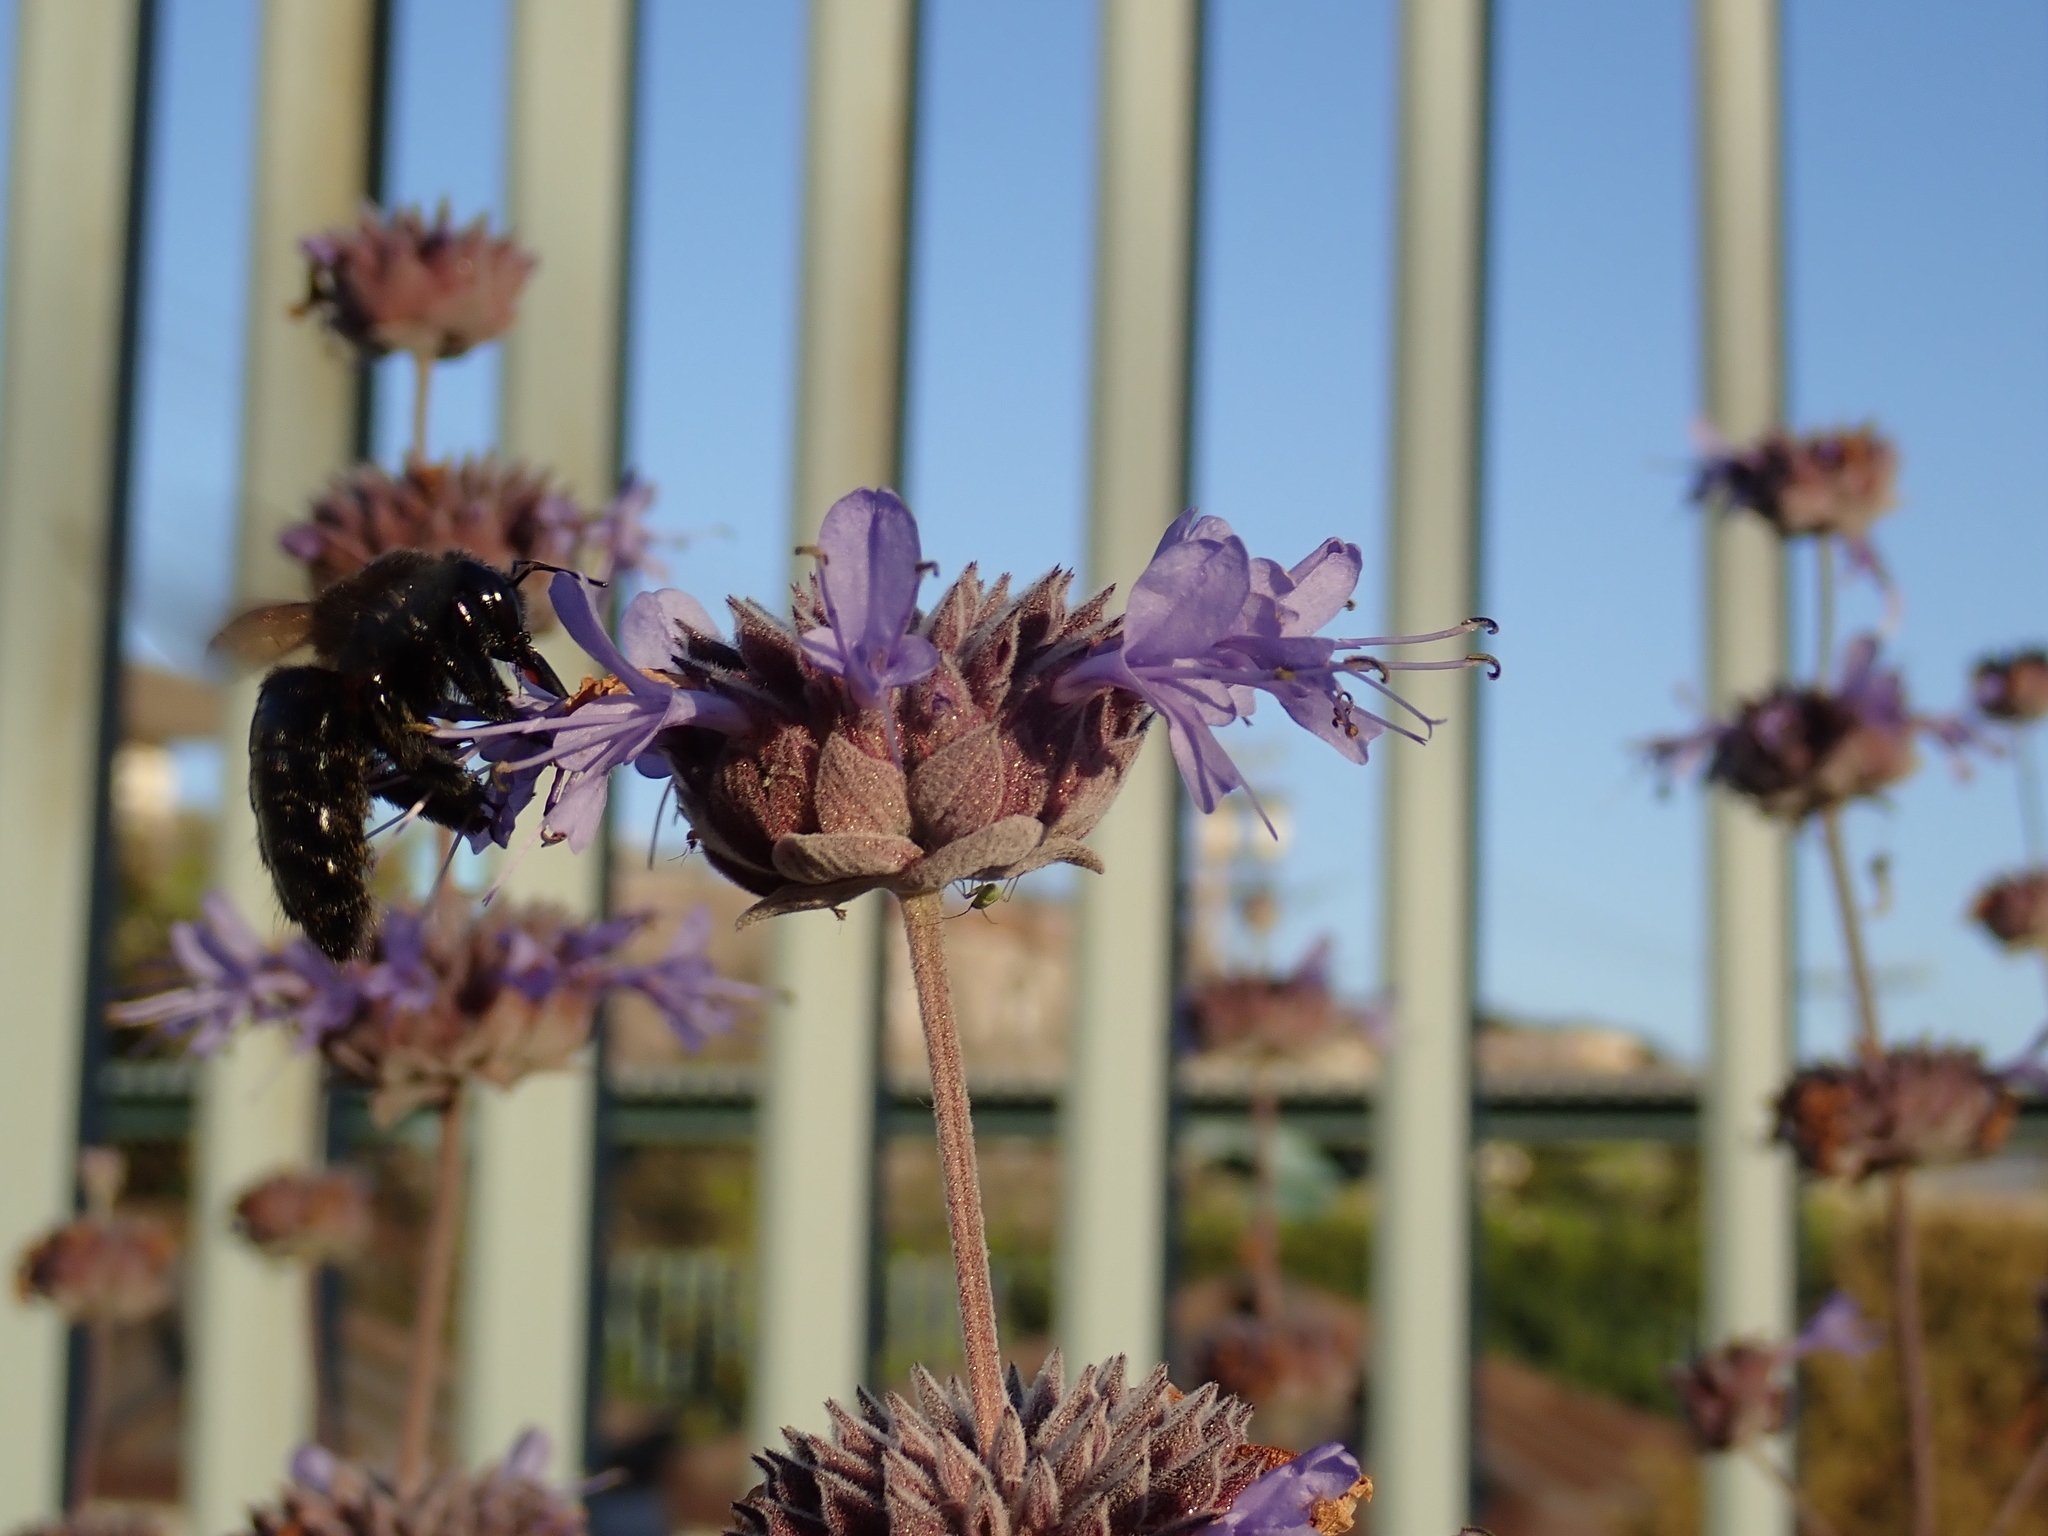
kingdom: Animalia
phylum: Arthropoda
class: Insecta
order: Hymenoptera
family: Apidae
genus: Xylocopa
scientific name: Xylocopa sonorina
